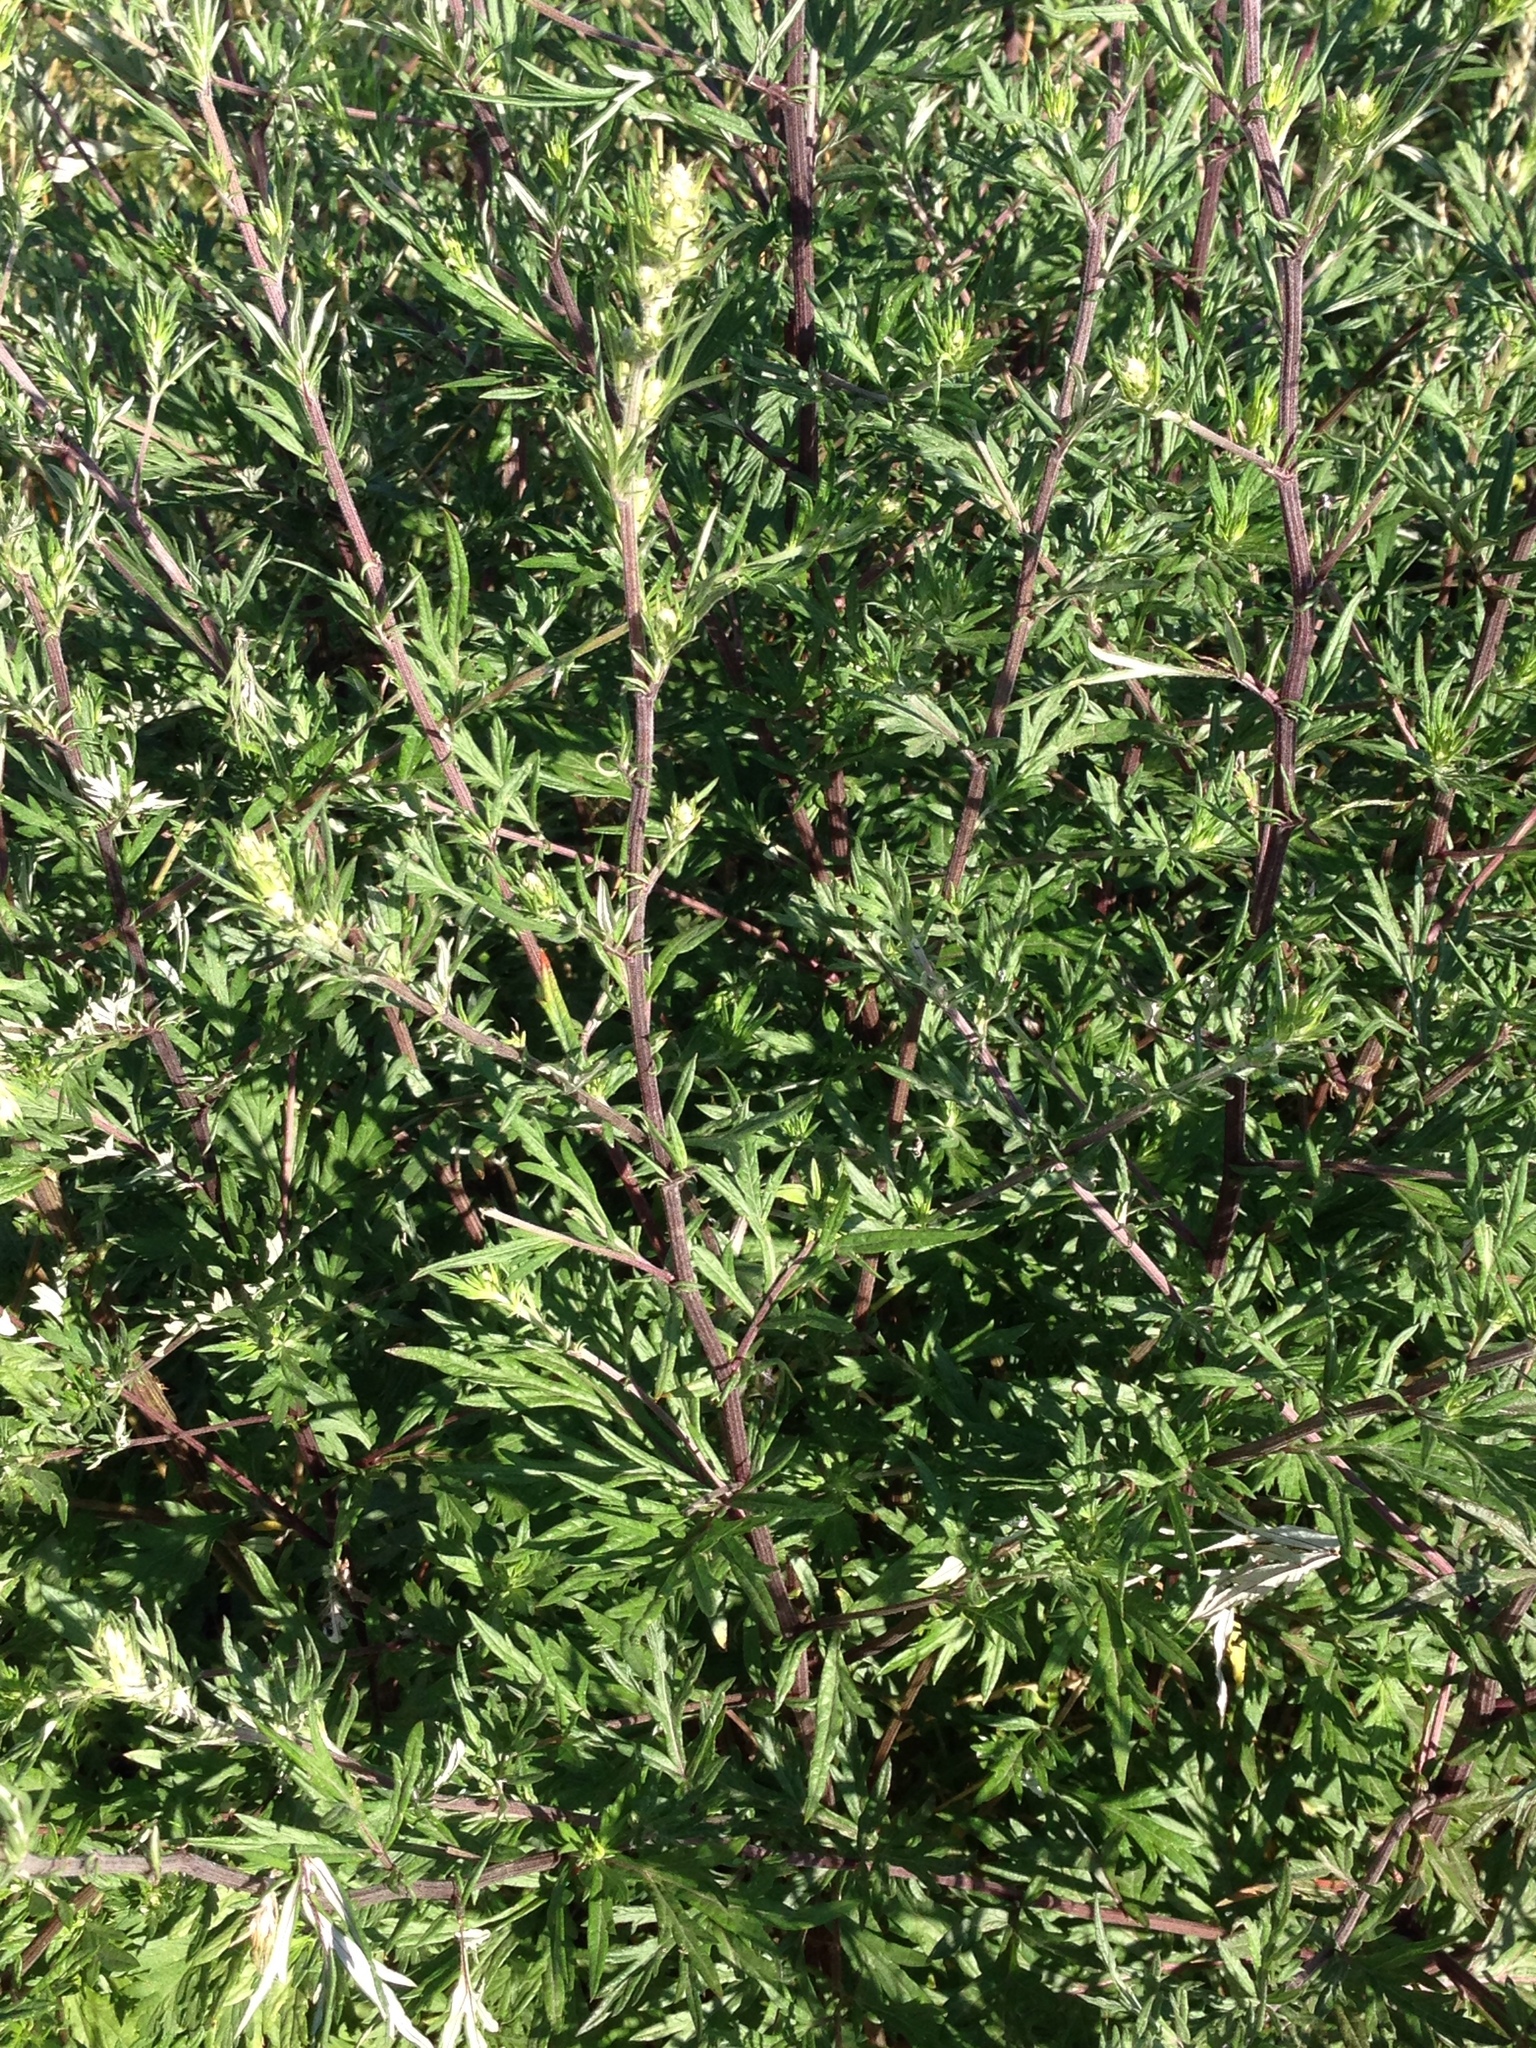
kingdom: Plantae
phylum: Tracheophyta
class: Magnoliopsida
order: Asterales
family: Asteraceae
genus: Artemisia
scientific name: Artemisia vulgaris
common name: Mugwort
